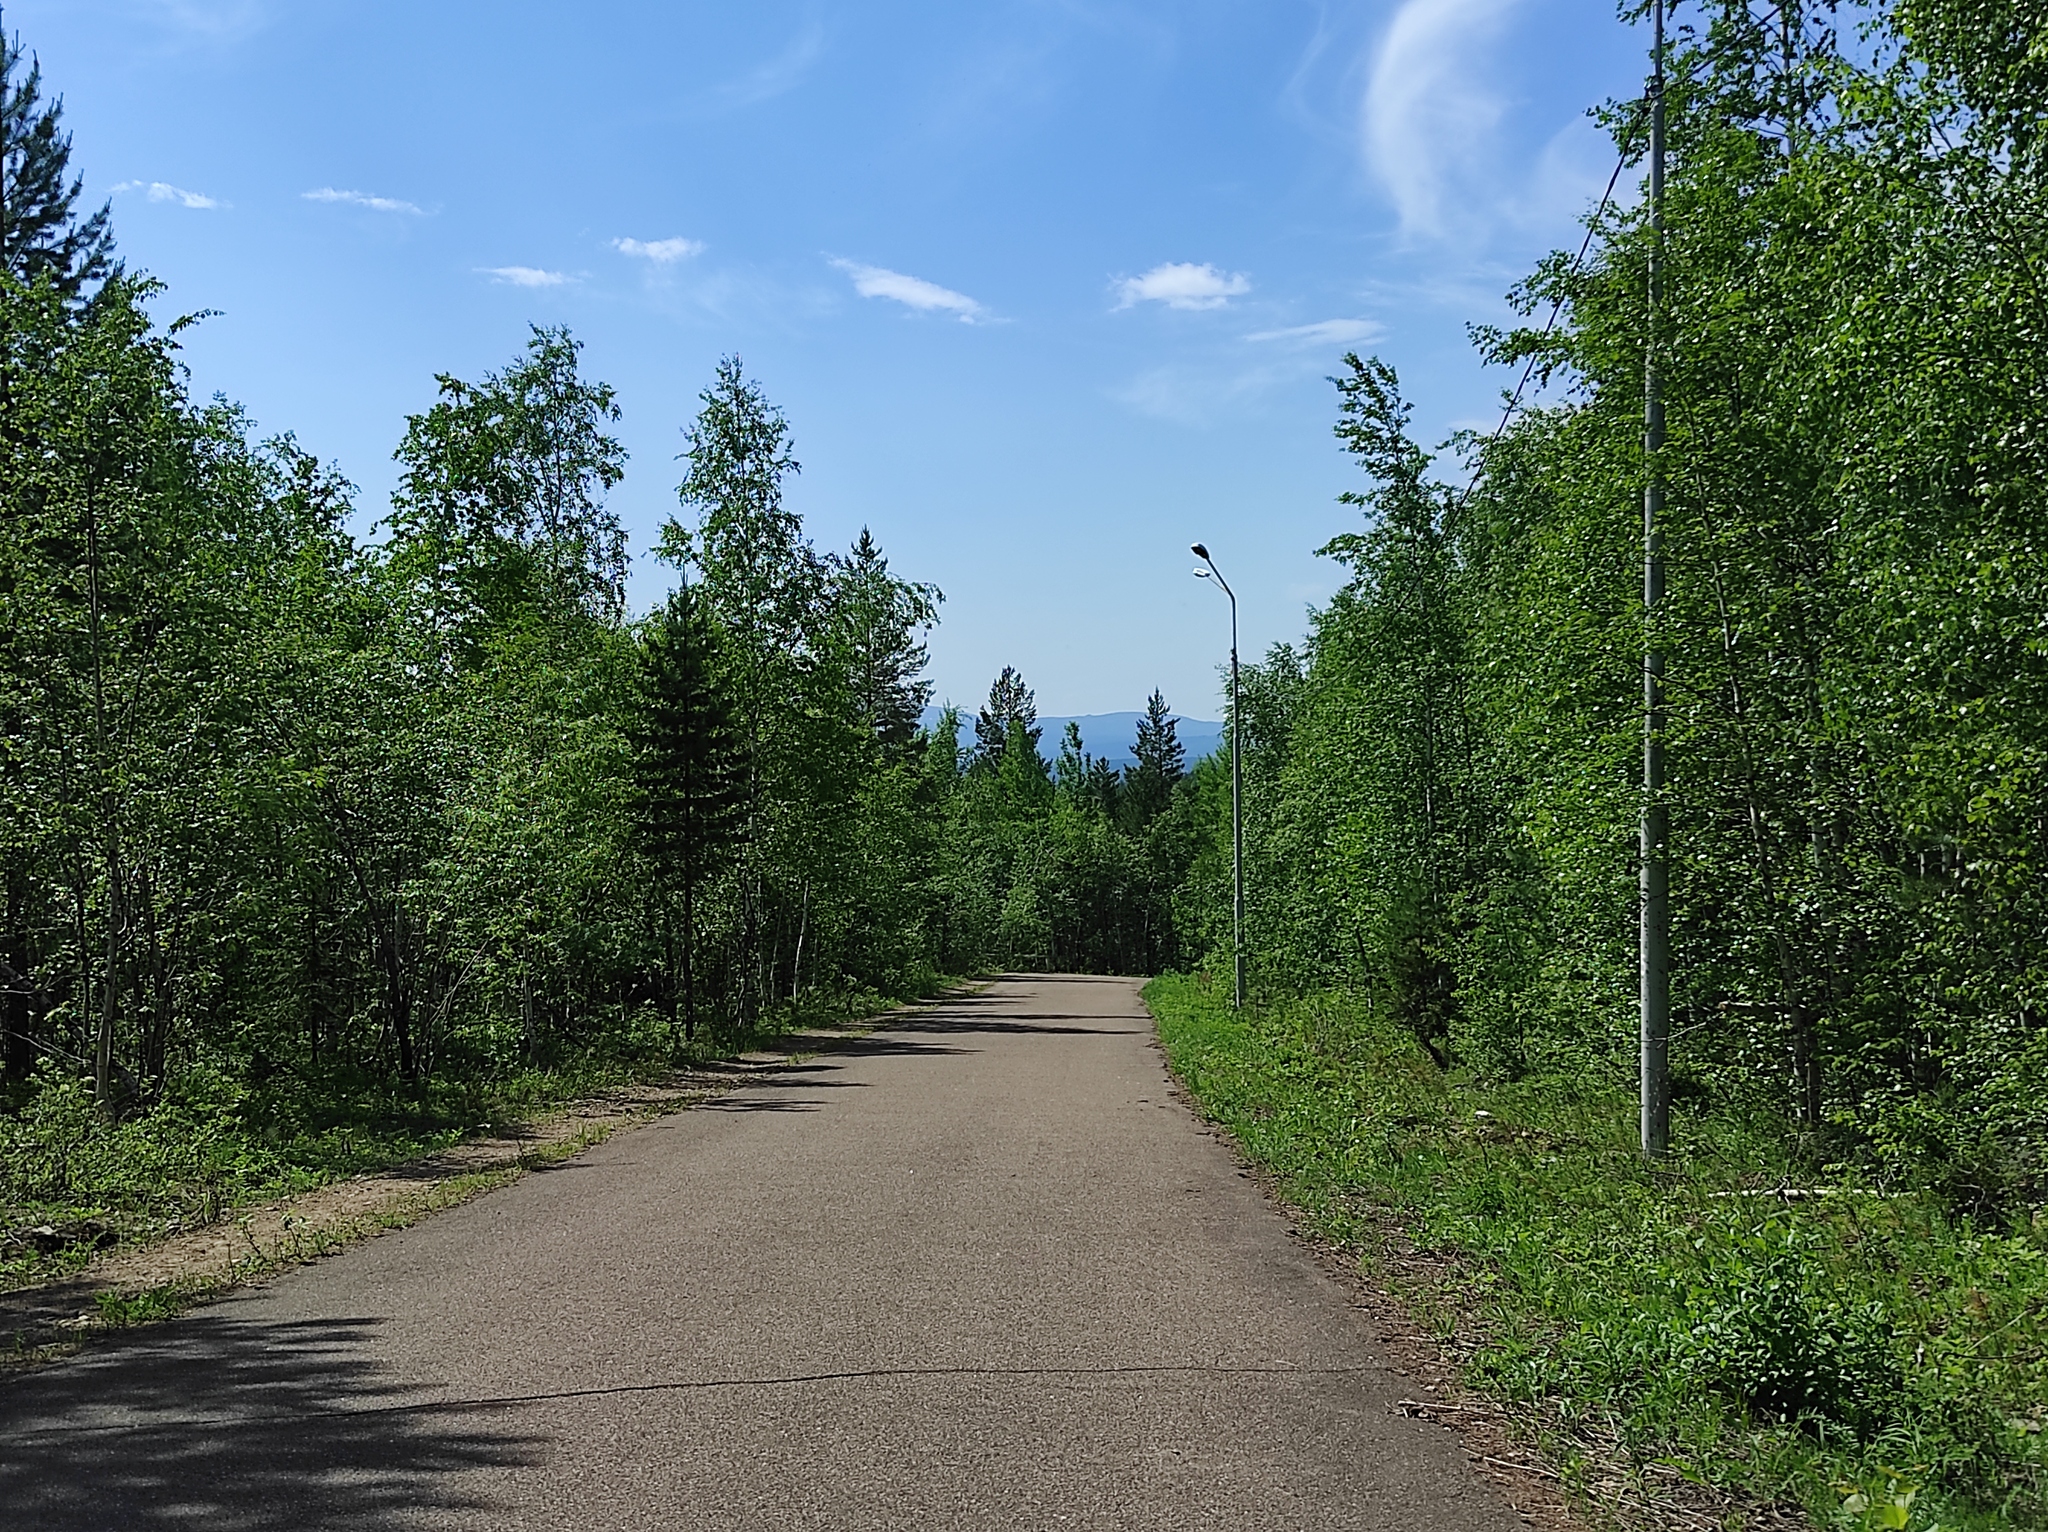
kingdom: Plantae
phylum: Tracheophyta
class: Pinopsida
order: Pinales
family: Pinaceae
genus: Pinus
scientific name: Pinus sylvestris
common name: Scots pine
